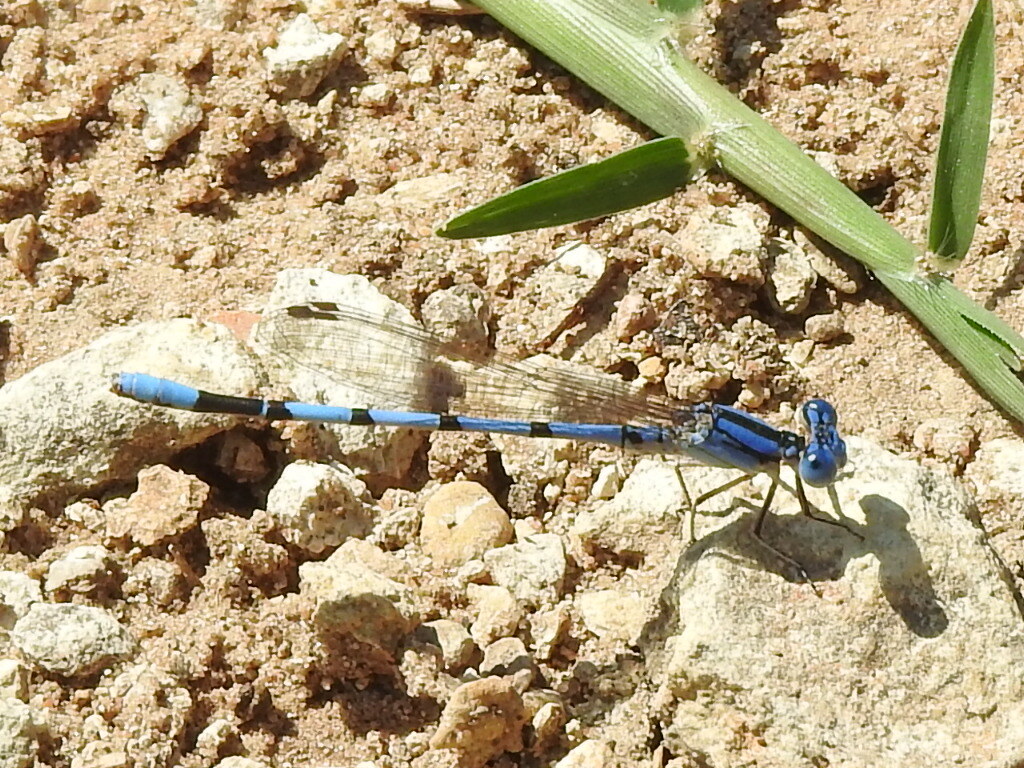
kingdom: Animalia
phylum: Arthropoda
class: Insecta
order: Odonata
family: Coenagrionidae
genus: Argia
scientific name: Argia nahuana
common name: Aztec dancer
